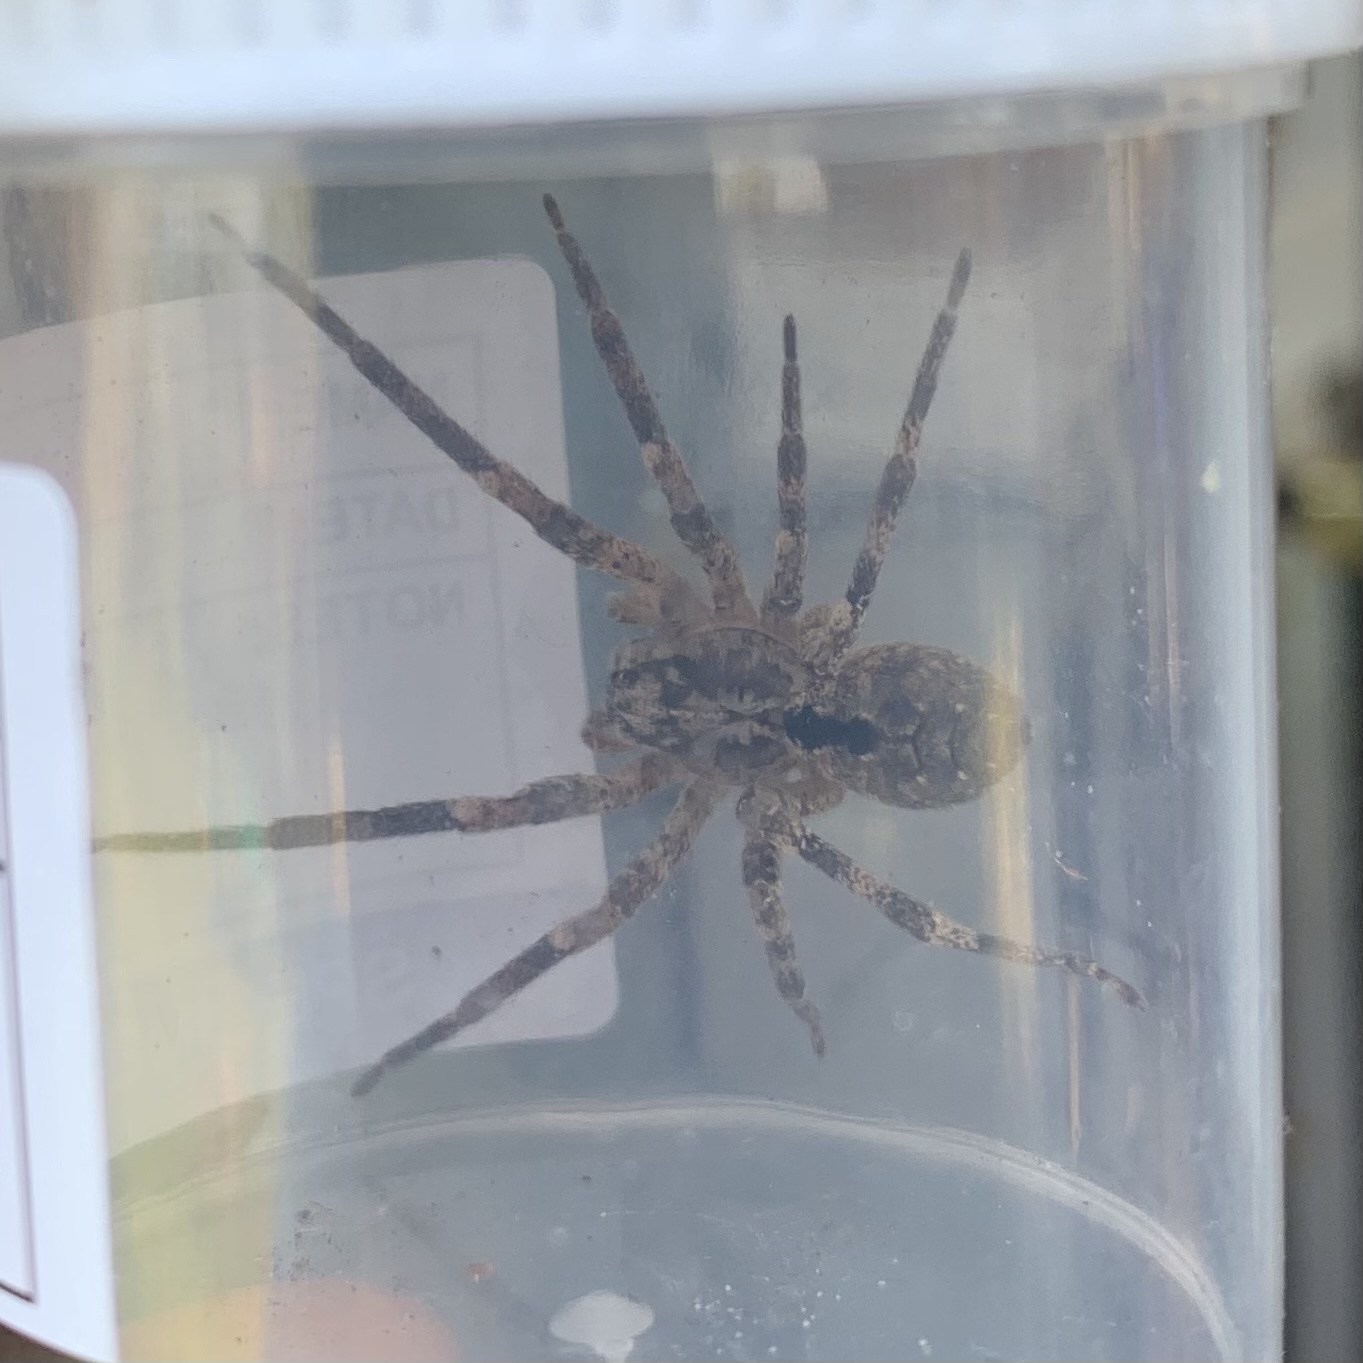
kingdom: Animalia
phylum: Arthropoda
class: Arachnida
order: Araneae
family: Zoropsidae
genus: Zoropsis
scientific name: Zoropsis spinimana
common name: Zoropsid spider
